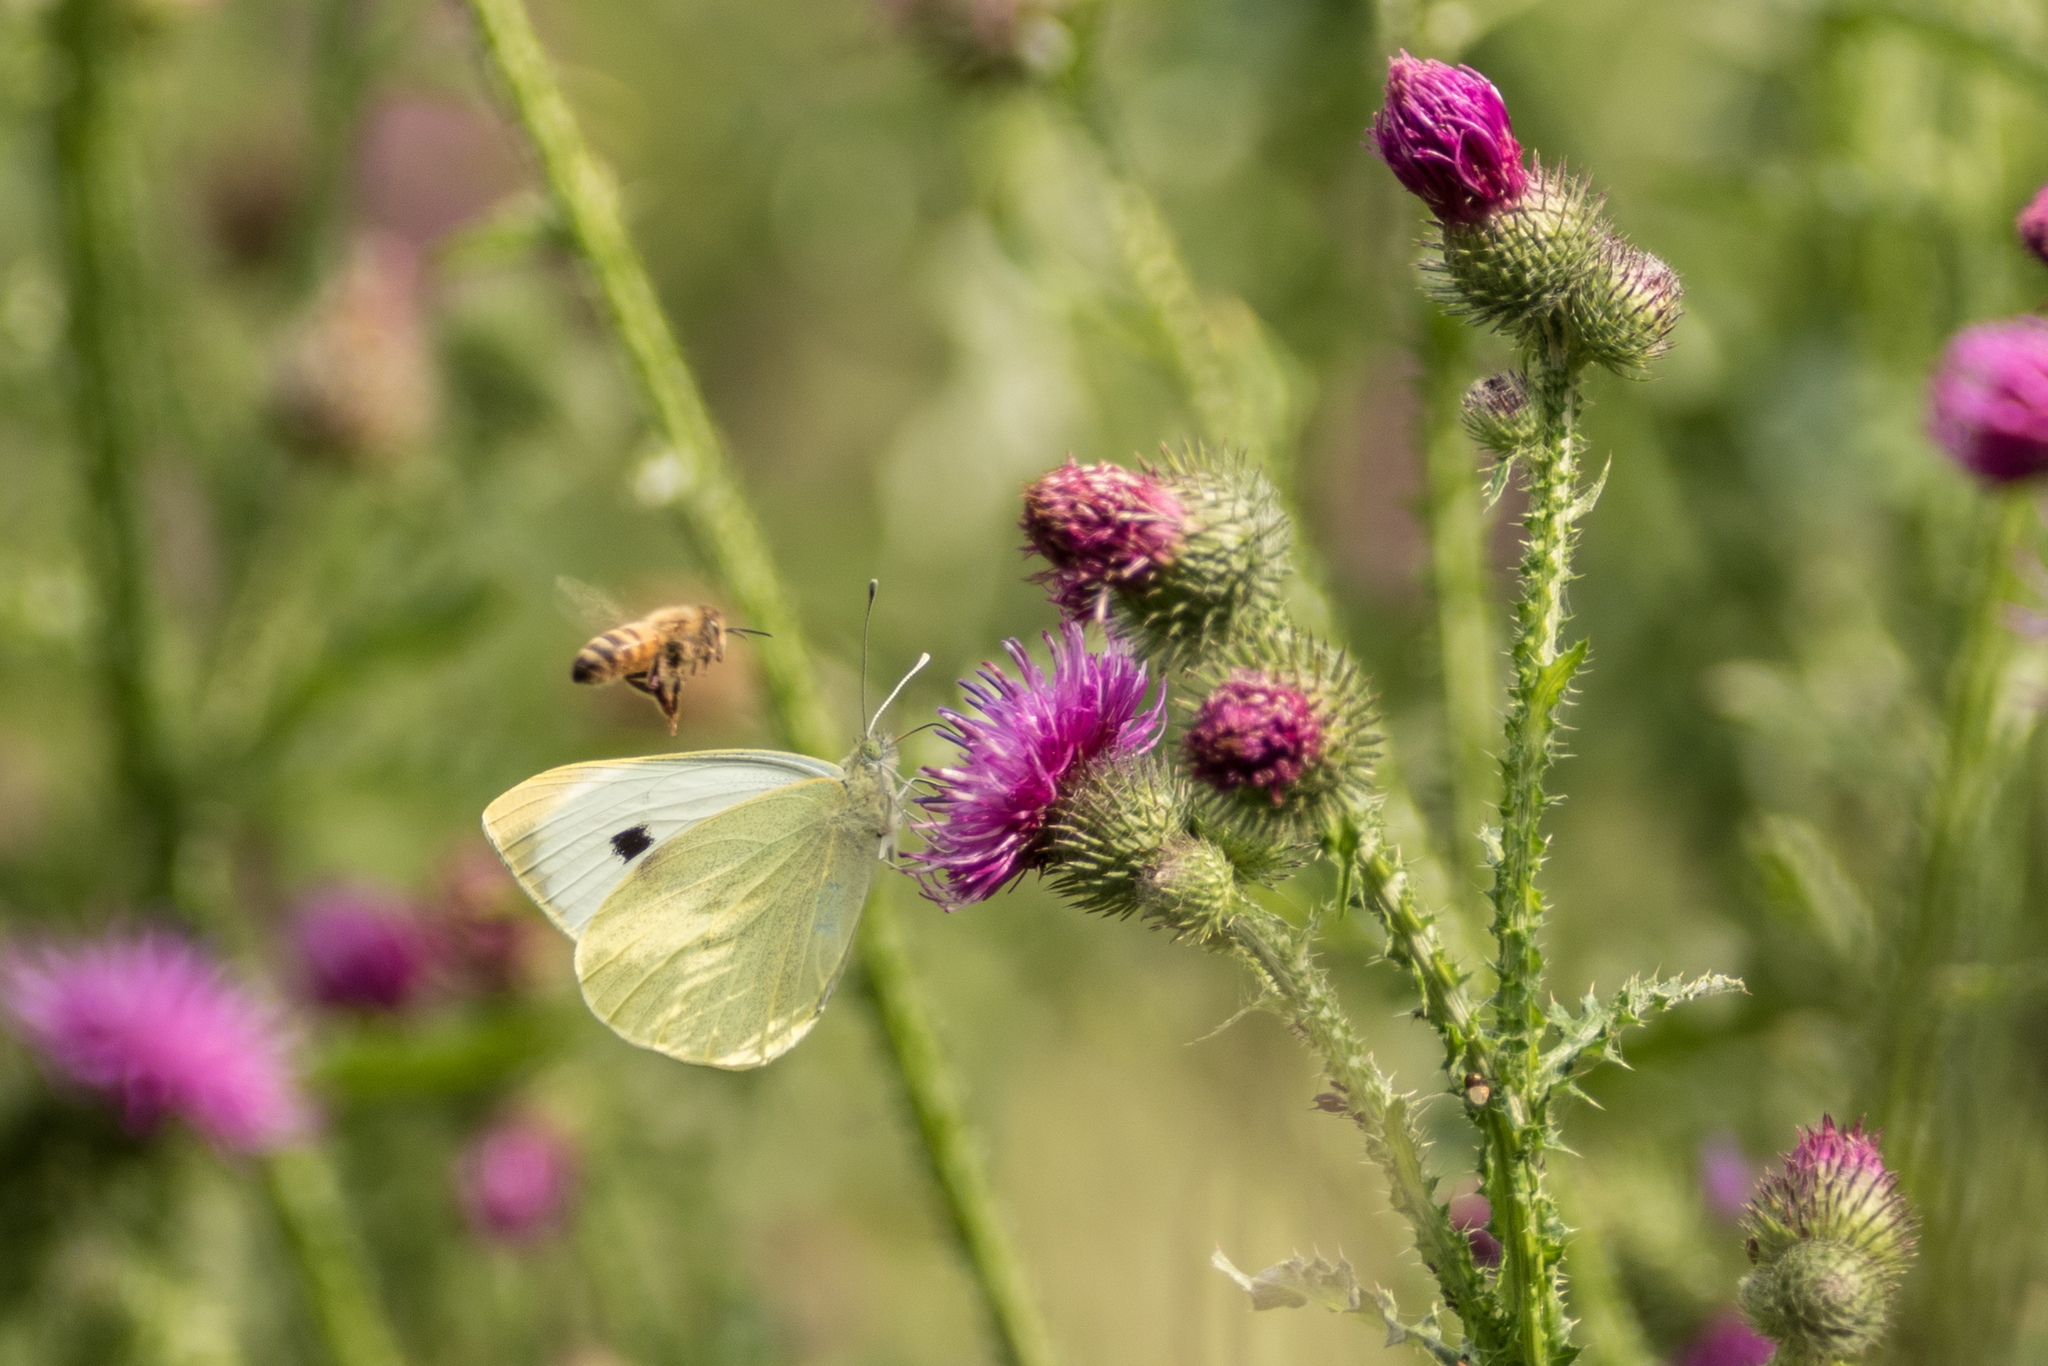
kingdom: Animalia
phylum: Arthropoda
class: Insecta
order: Hymenoptera
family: Apidae
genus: Apis
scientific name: Apis mellifera
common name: Honey bee
